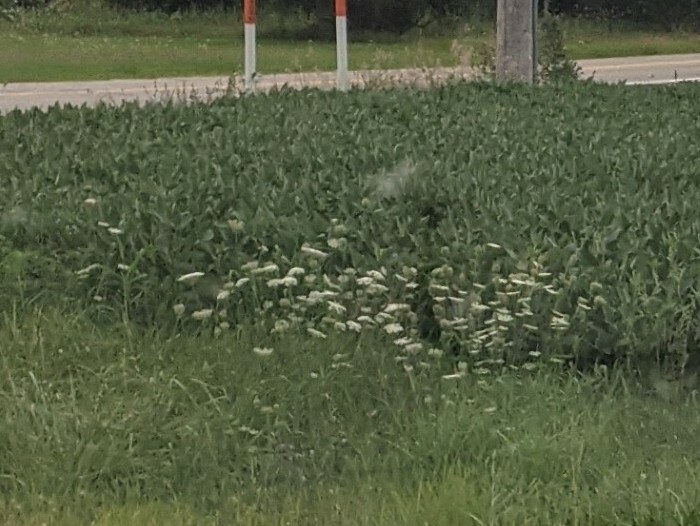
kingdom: Plantae
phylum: Tracheophyta
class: Magnoliopsida
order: Apiales
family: Apiaceae
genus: Daucus
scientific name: Daucus carota
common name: Wild carrot
